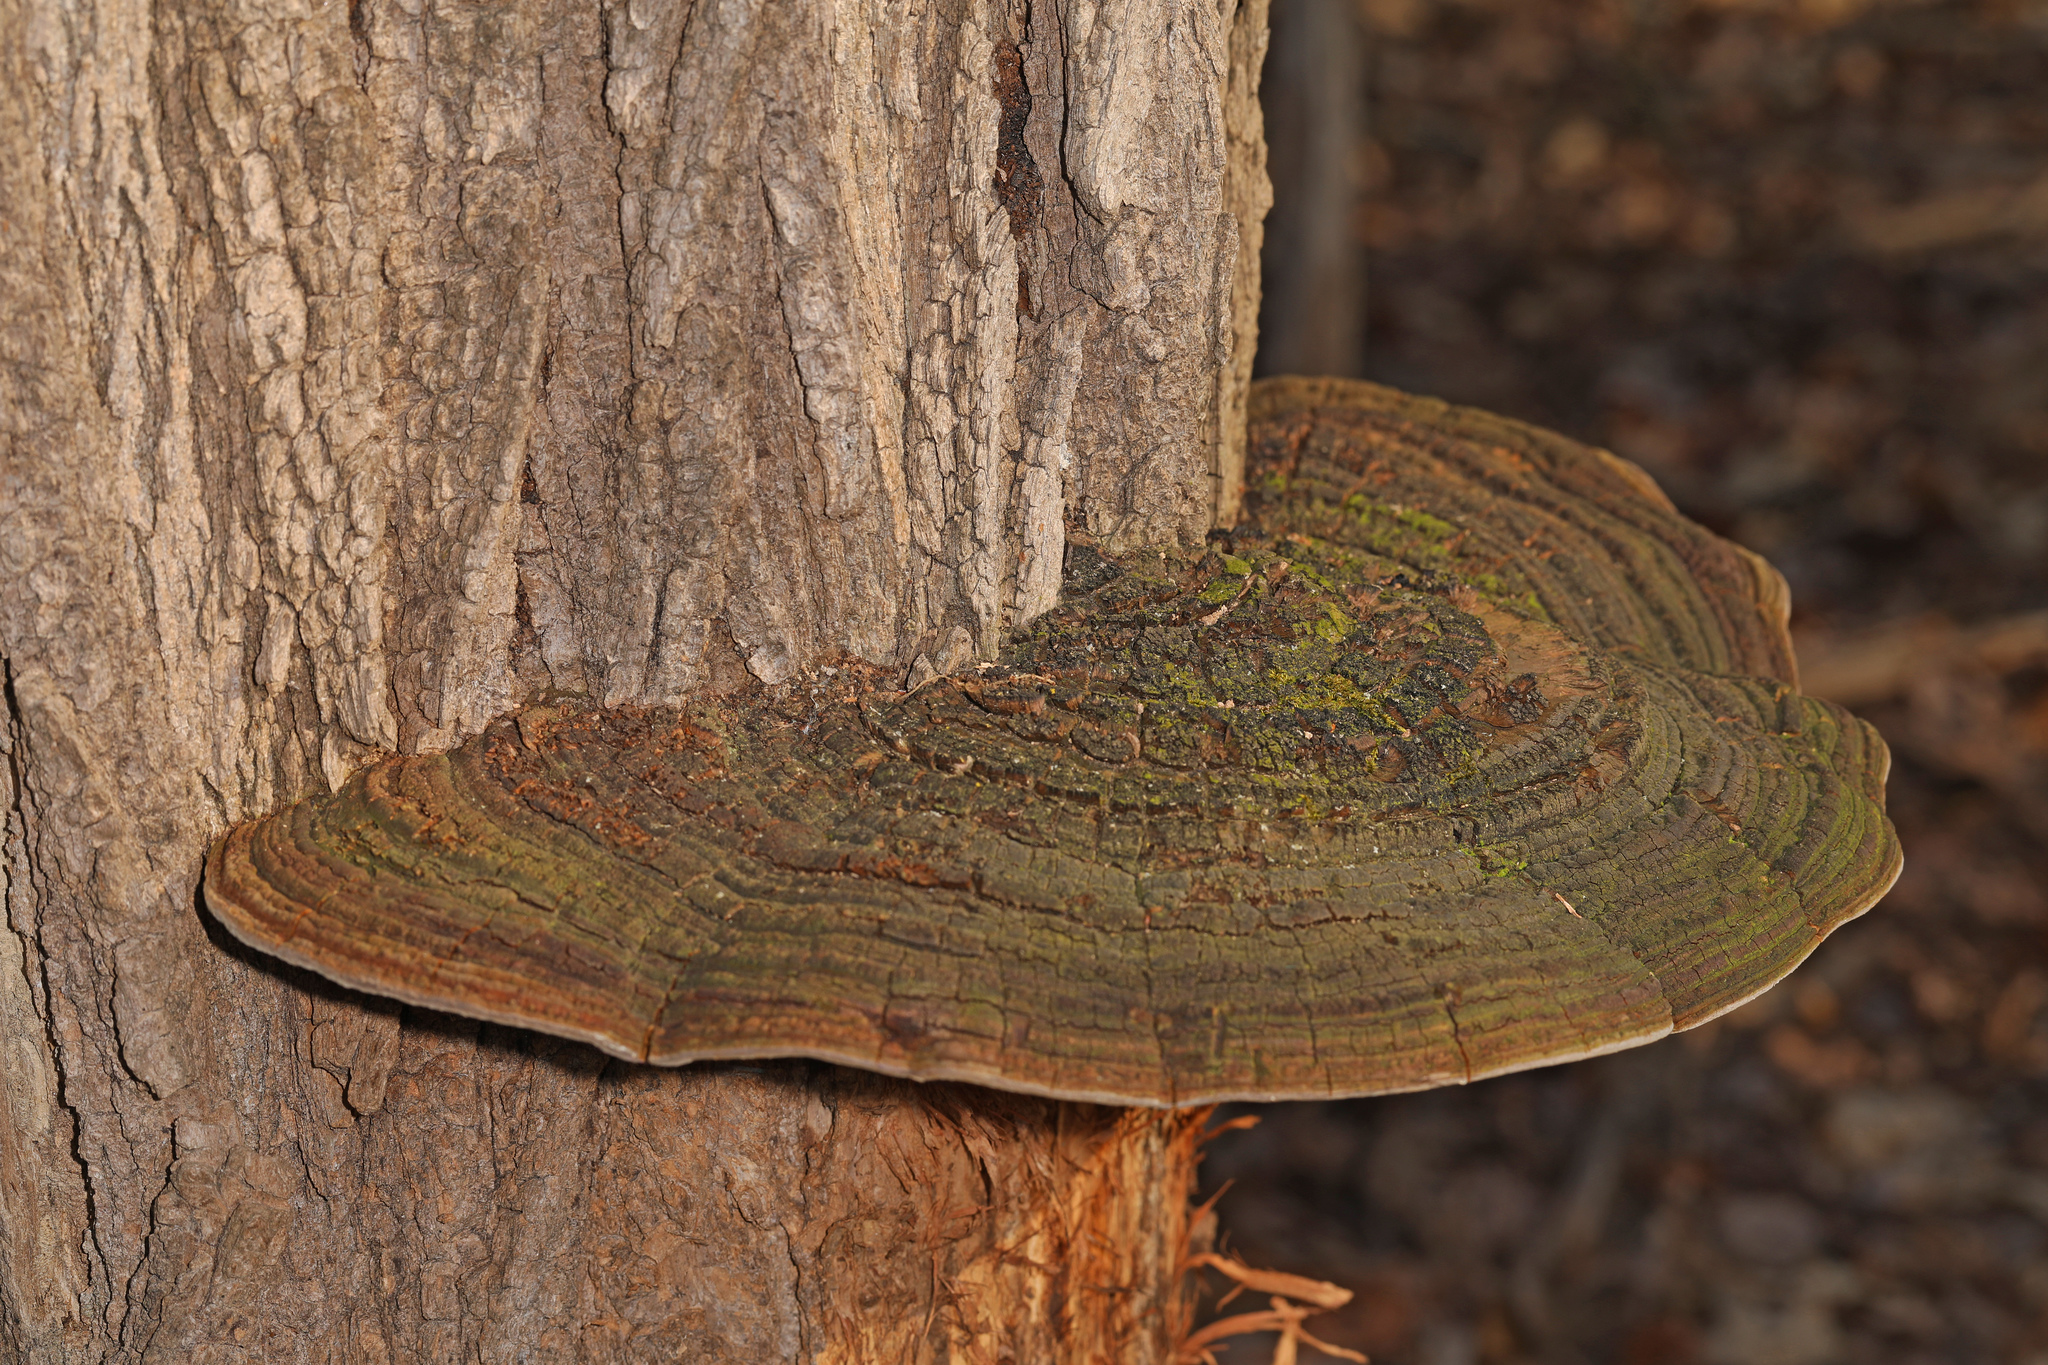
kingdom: Fungi
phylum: Basidiomycota
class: Agaricomycetes
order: Hymenochaetales
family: Hymenochaetaceae
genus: Phellinus
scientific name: Phellinus robiniae
